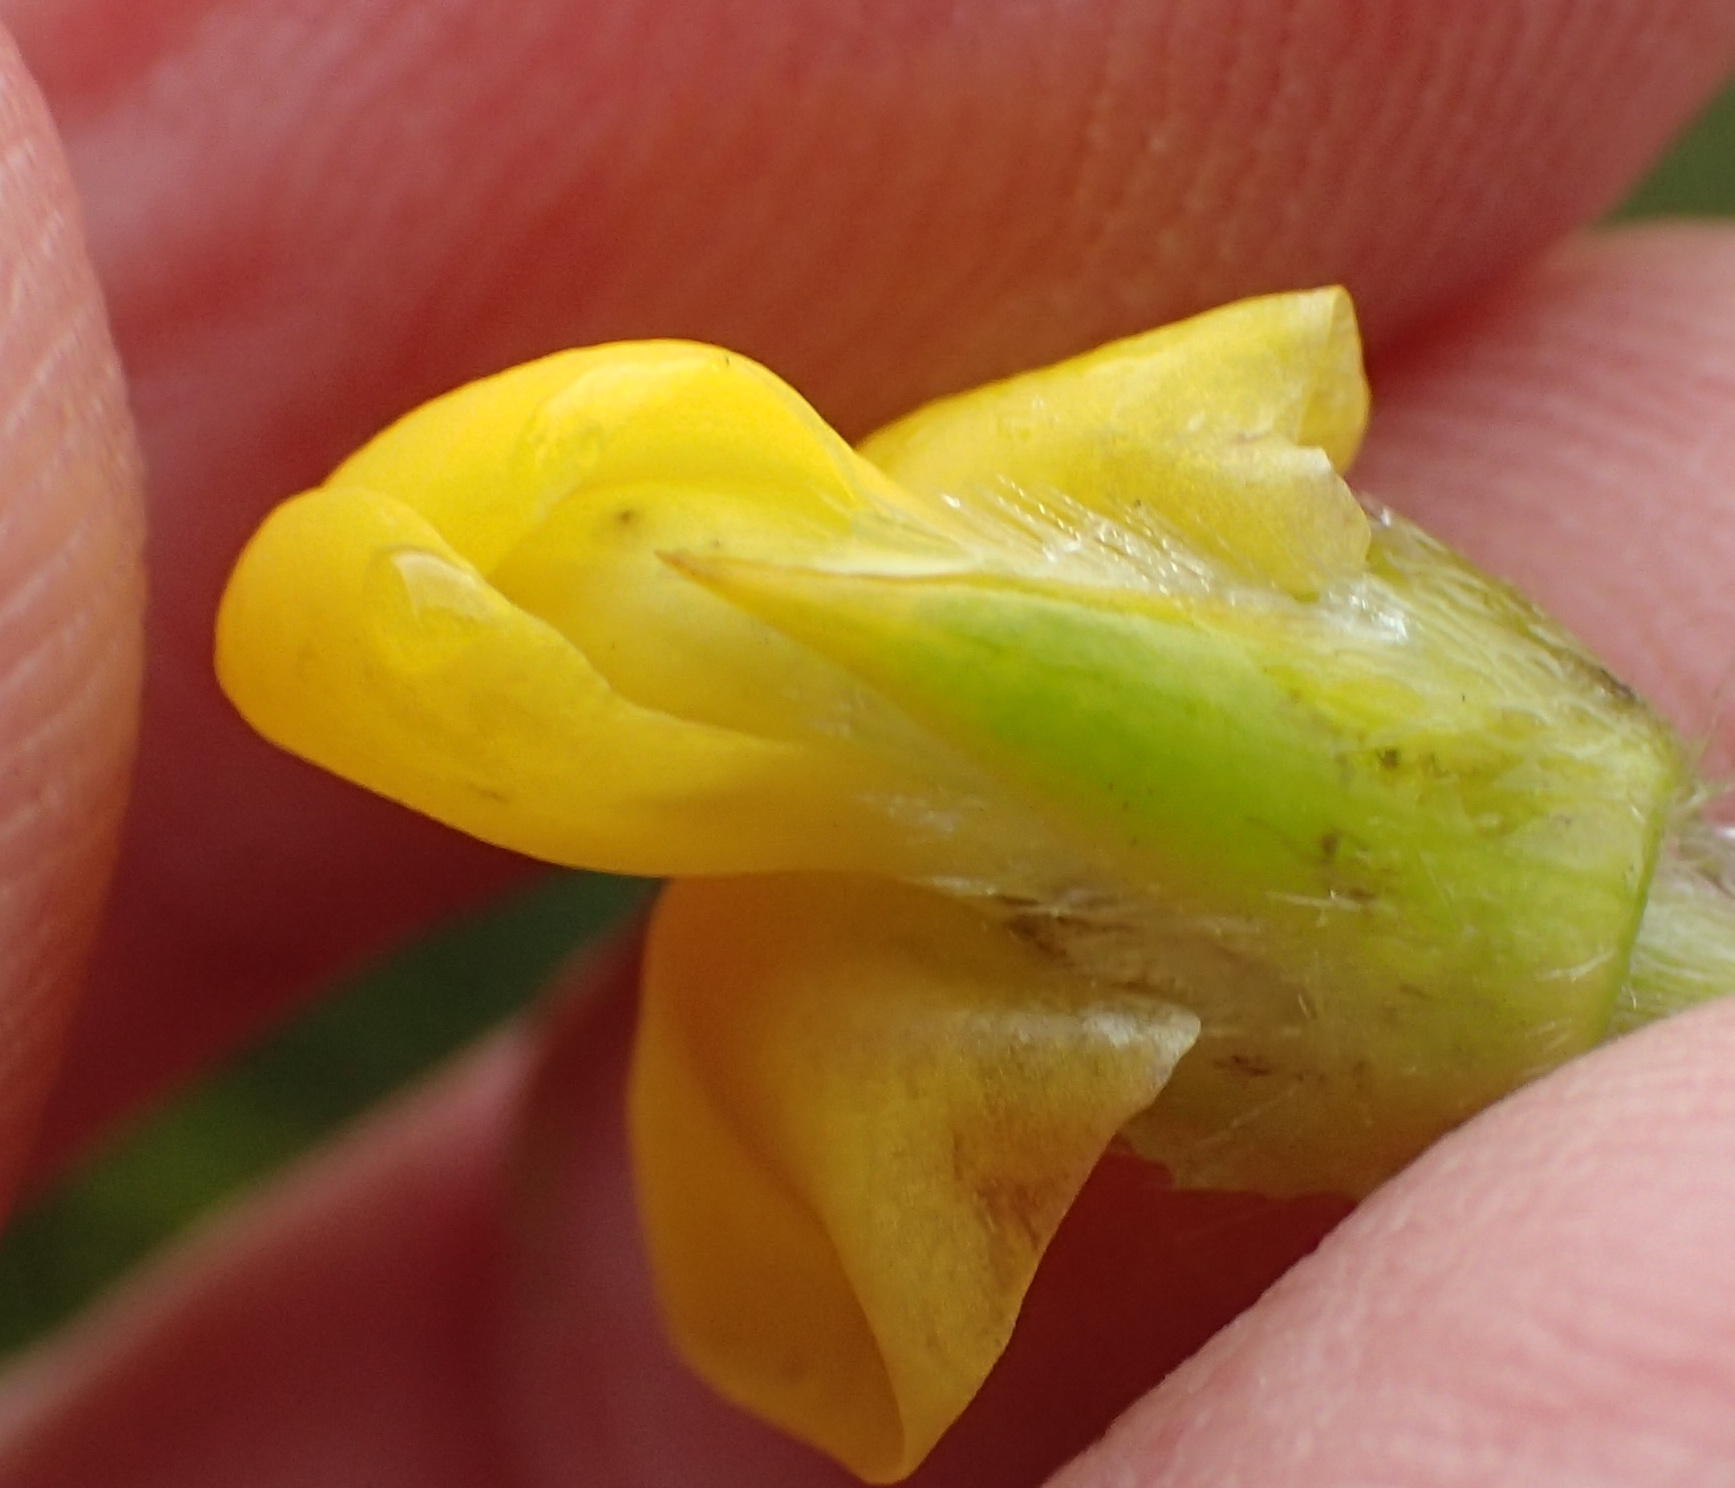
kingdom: Plantae
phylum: Tracheophyta
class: Magnoliopsida
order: Fabales
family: Fabaceae
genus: Liparia
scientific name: Liparia hirsuta
